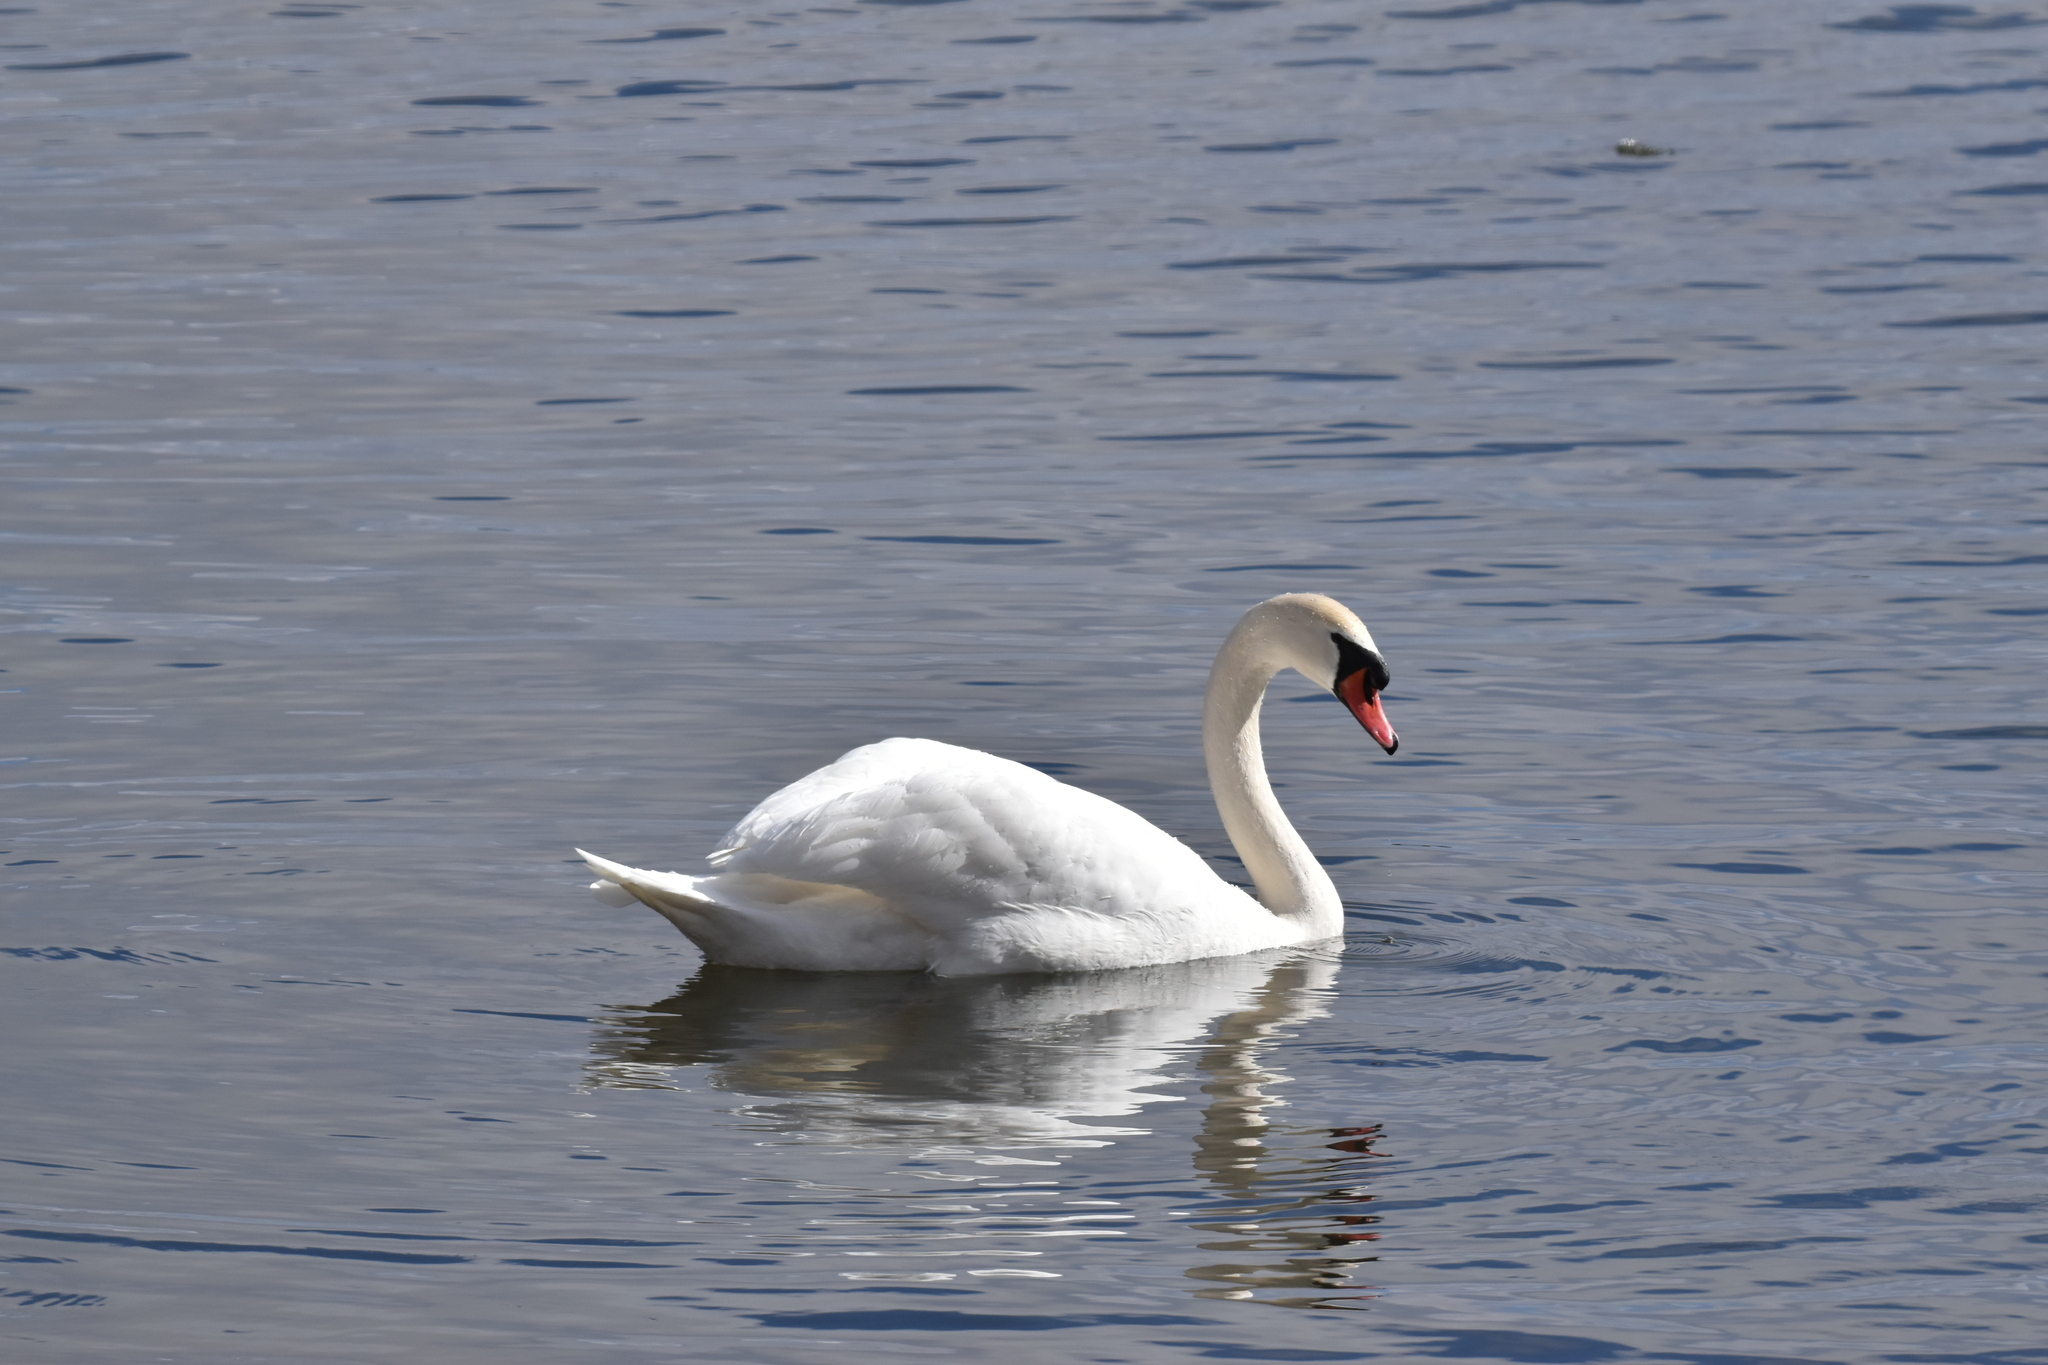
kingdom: Animalia
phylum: Chordata
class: Aves
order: Anseriformes
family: Anatidae
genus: Cygnus
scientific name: Cygnus olor
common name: Mute swan
